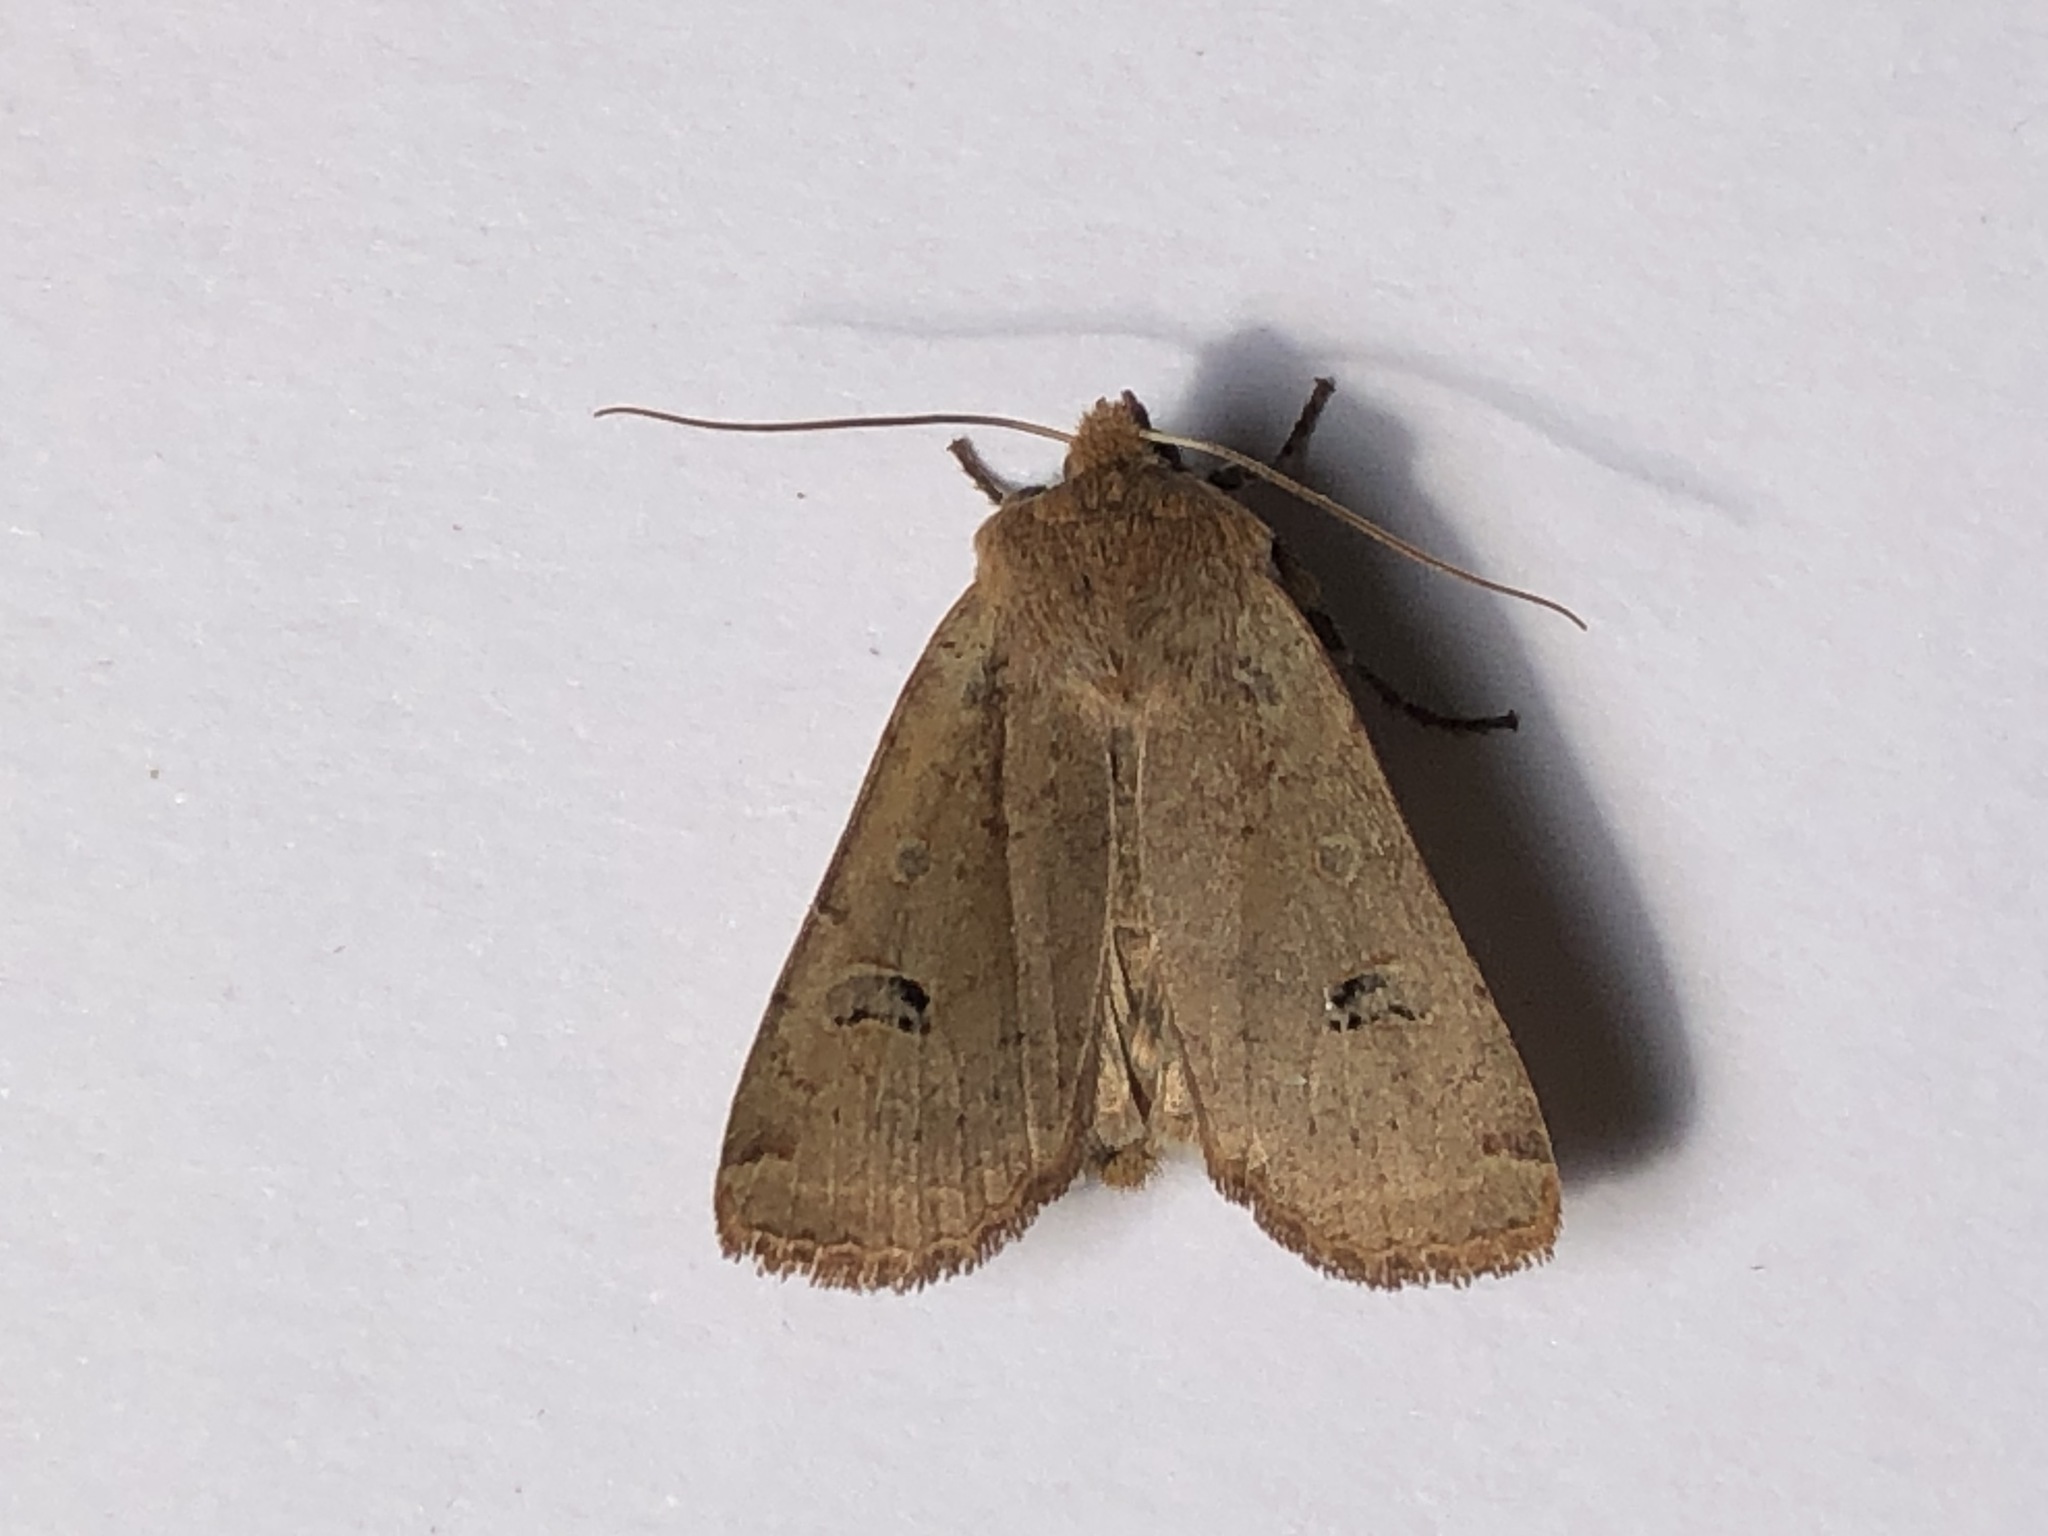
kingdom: Animalia
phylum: Arthropoda
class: Insecta
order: Lepidoptera
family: Noctuidae
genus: Conistra
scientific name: Conistra erythrocephala
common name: Red-headed chestnut
